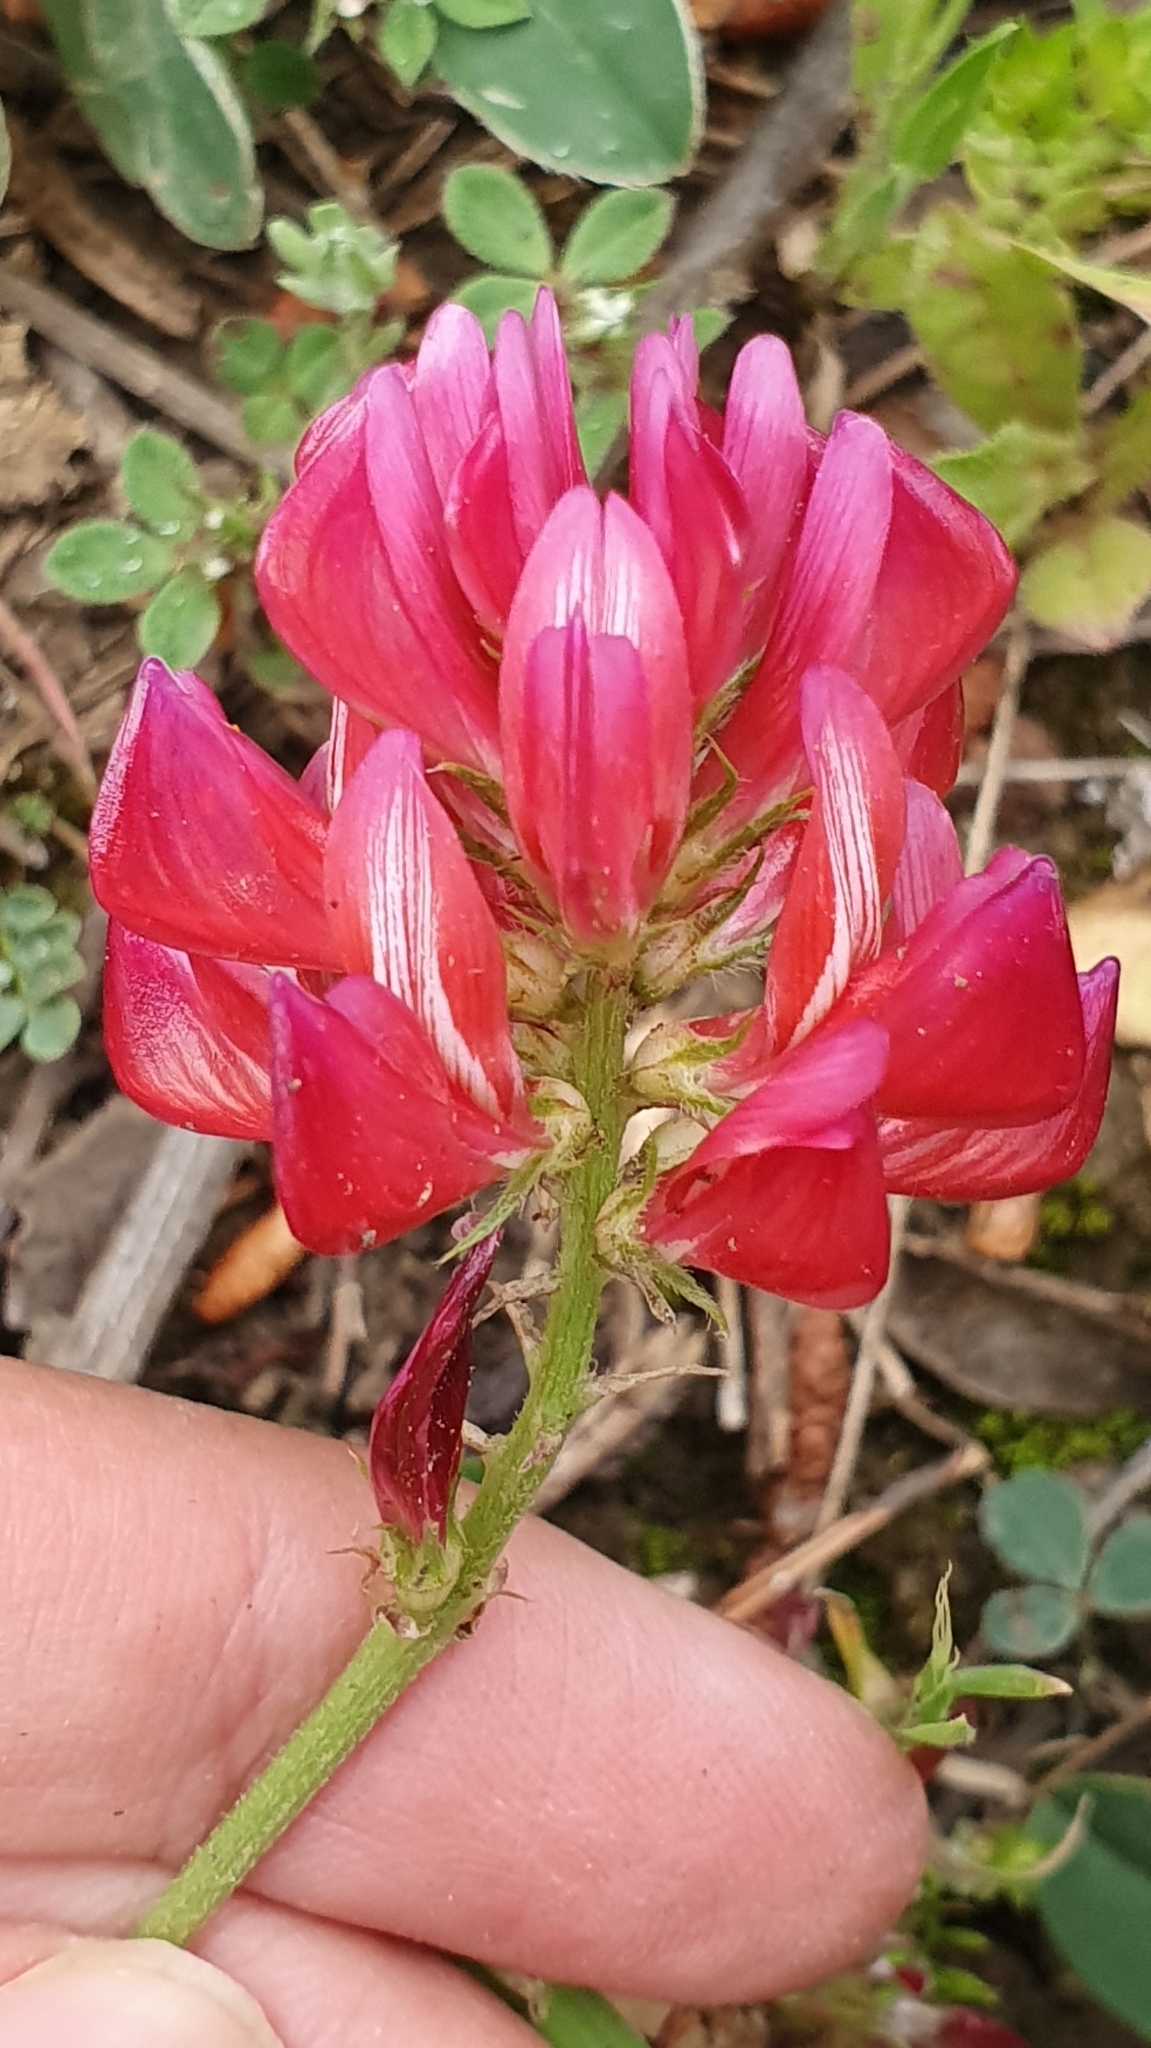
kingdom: Plantae
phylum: Tracheophyta
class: Magnoliopsida
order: Fabales
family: Fabaceae
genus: Sulla
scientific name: Sulla coronaria
